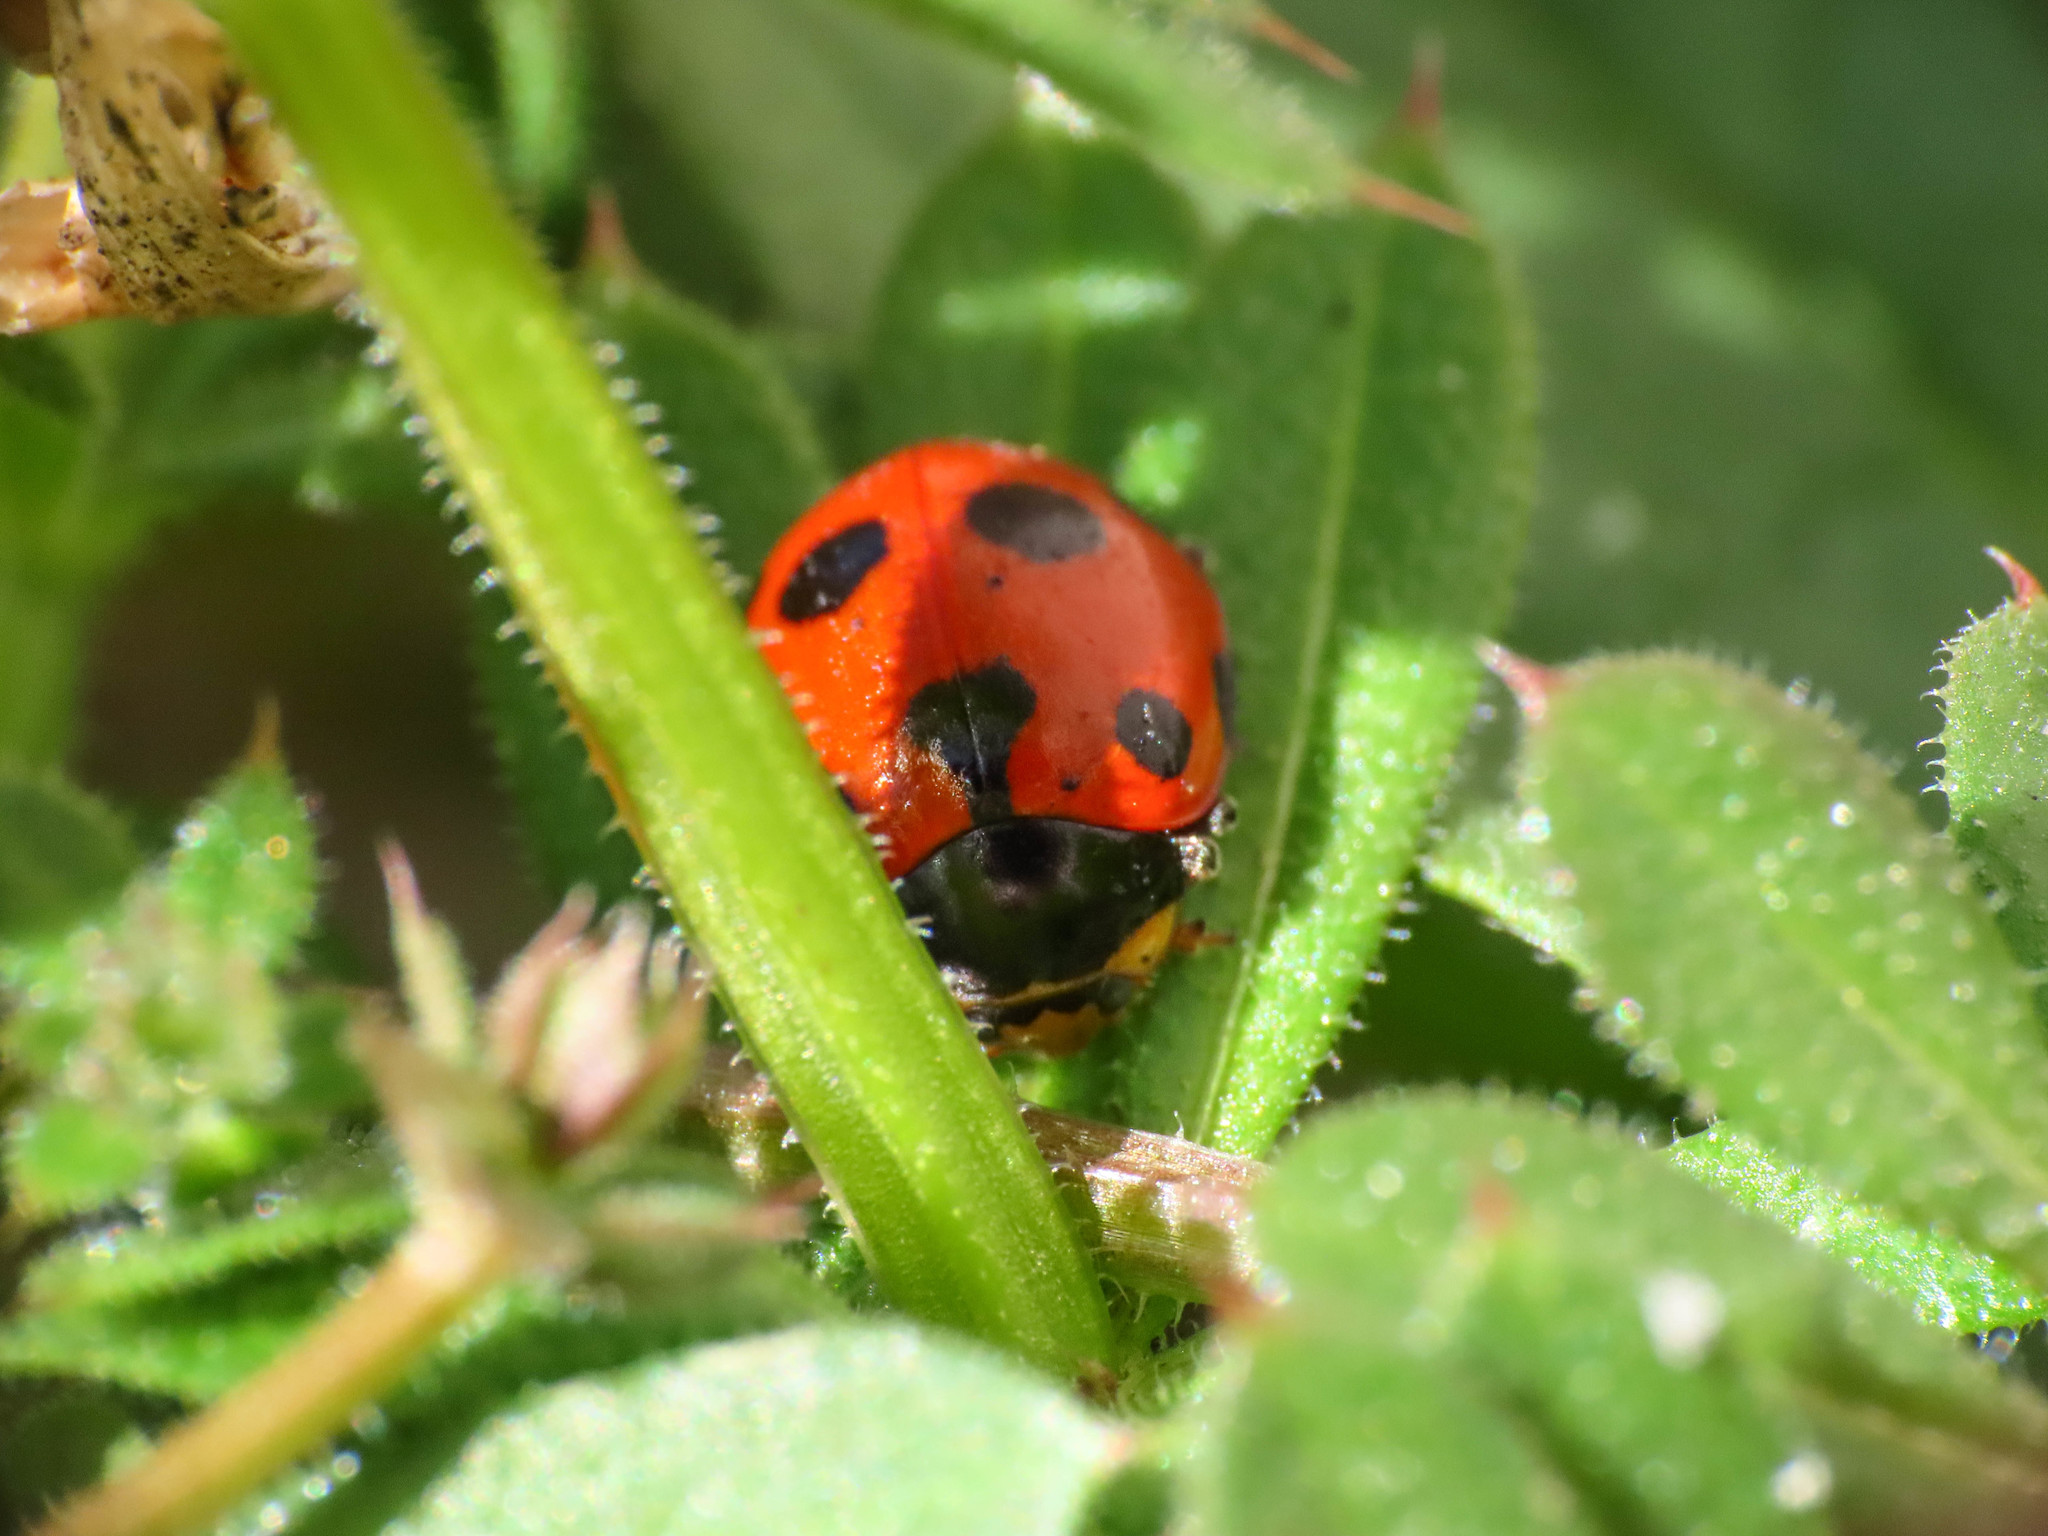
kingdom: Animalia
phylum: Arthropoda
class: Insecta
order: Coleoptera
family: Coccinellidae
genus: Ceratomegilla
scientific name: Ceratomegilla undecimnotata
